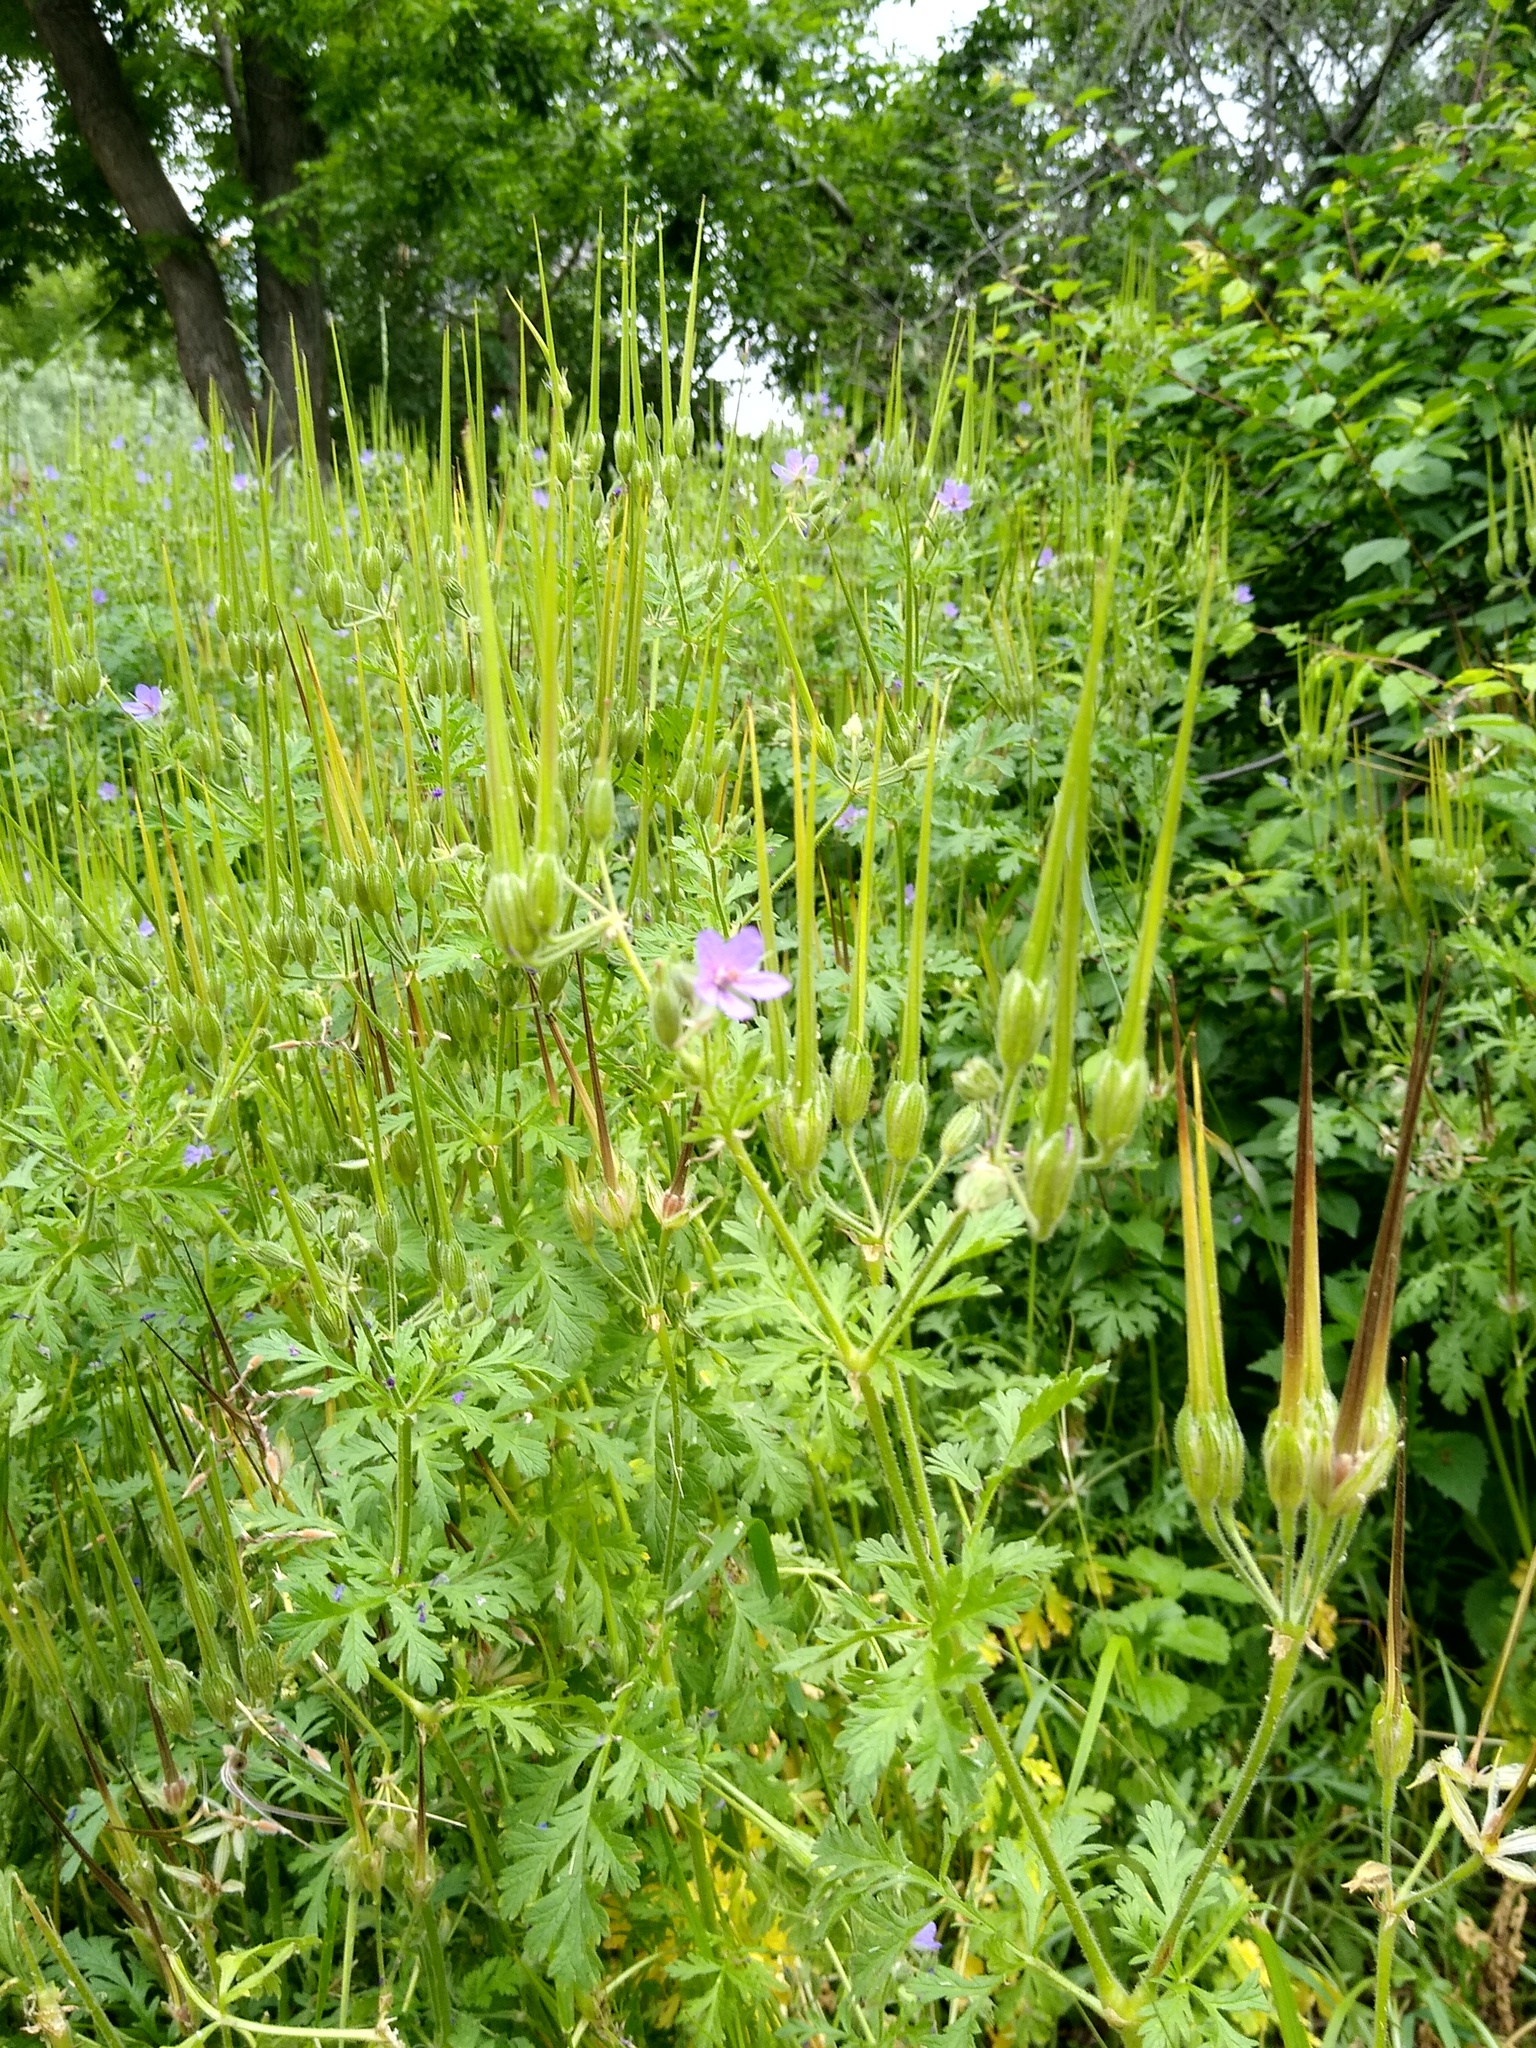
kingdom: Plantae
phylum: Tracheophyta
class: Magnoliopsida
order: Geraniales
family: Geraniaceae
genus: Erodium
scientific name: Erodium ciconium
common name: Common stork's bill
